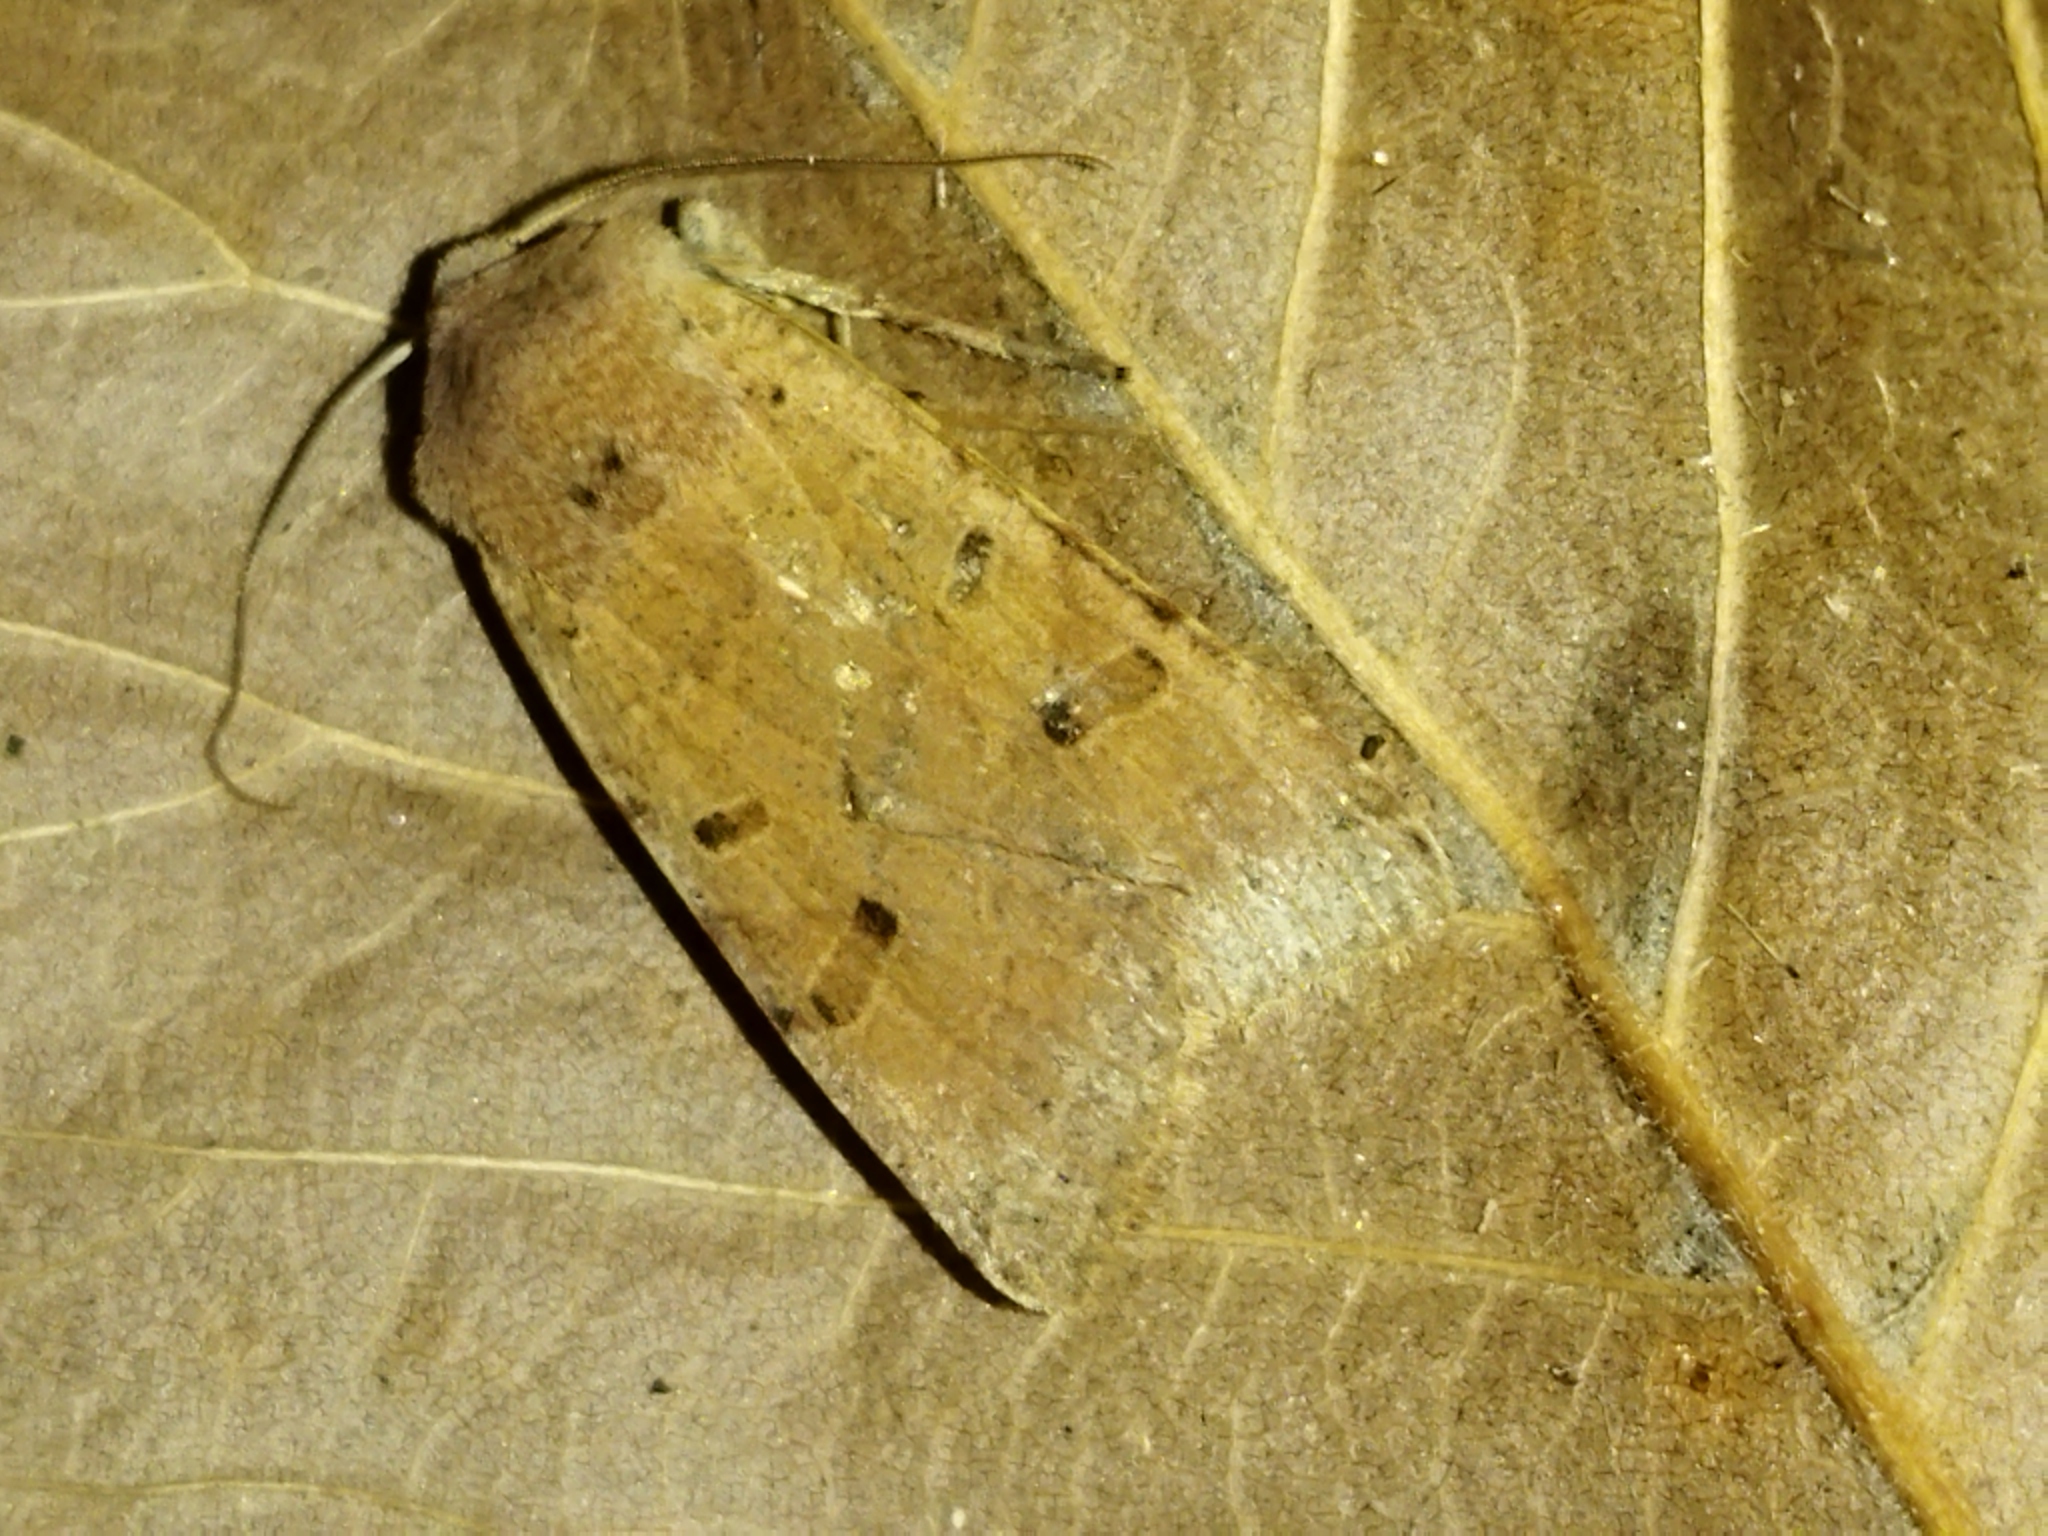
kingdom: Animalia
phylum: Arthropoda
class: Insecta
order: Lepidoptera
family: Noctuidae
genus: Agrochola
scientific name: Agrochola lychnidis
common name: Beaded chestnut
